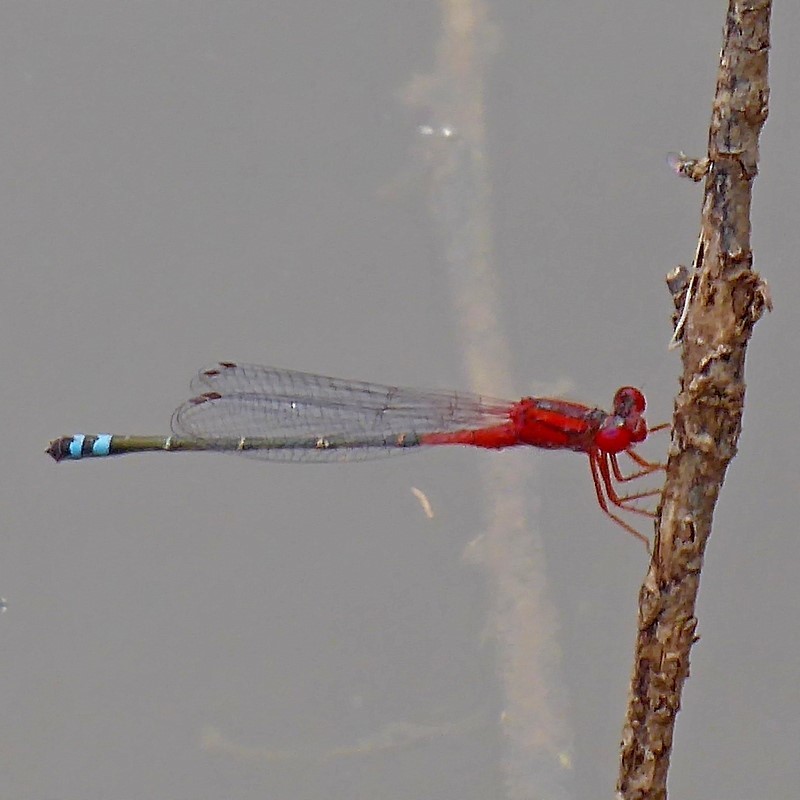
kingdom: Animalia
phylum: Arthropoda
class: Insecta
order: Odonata
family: Coenagrionidae
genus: Xanthagrion
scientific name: Xanthagrion erythroneurum
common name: Red and blue damsel
